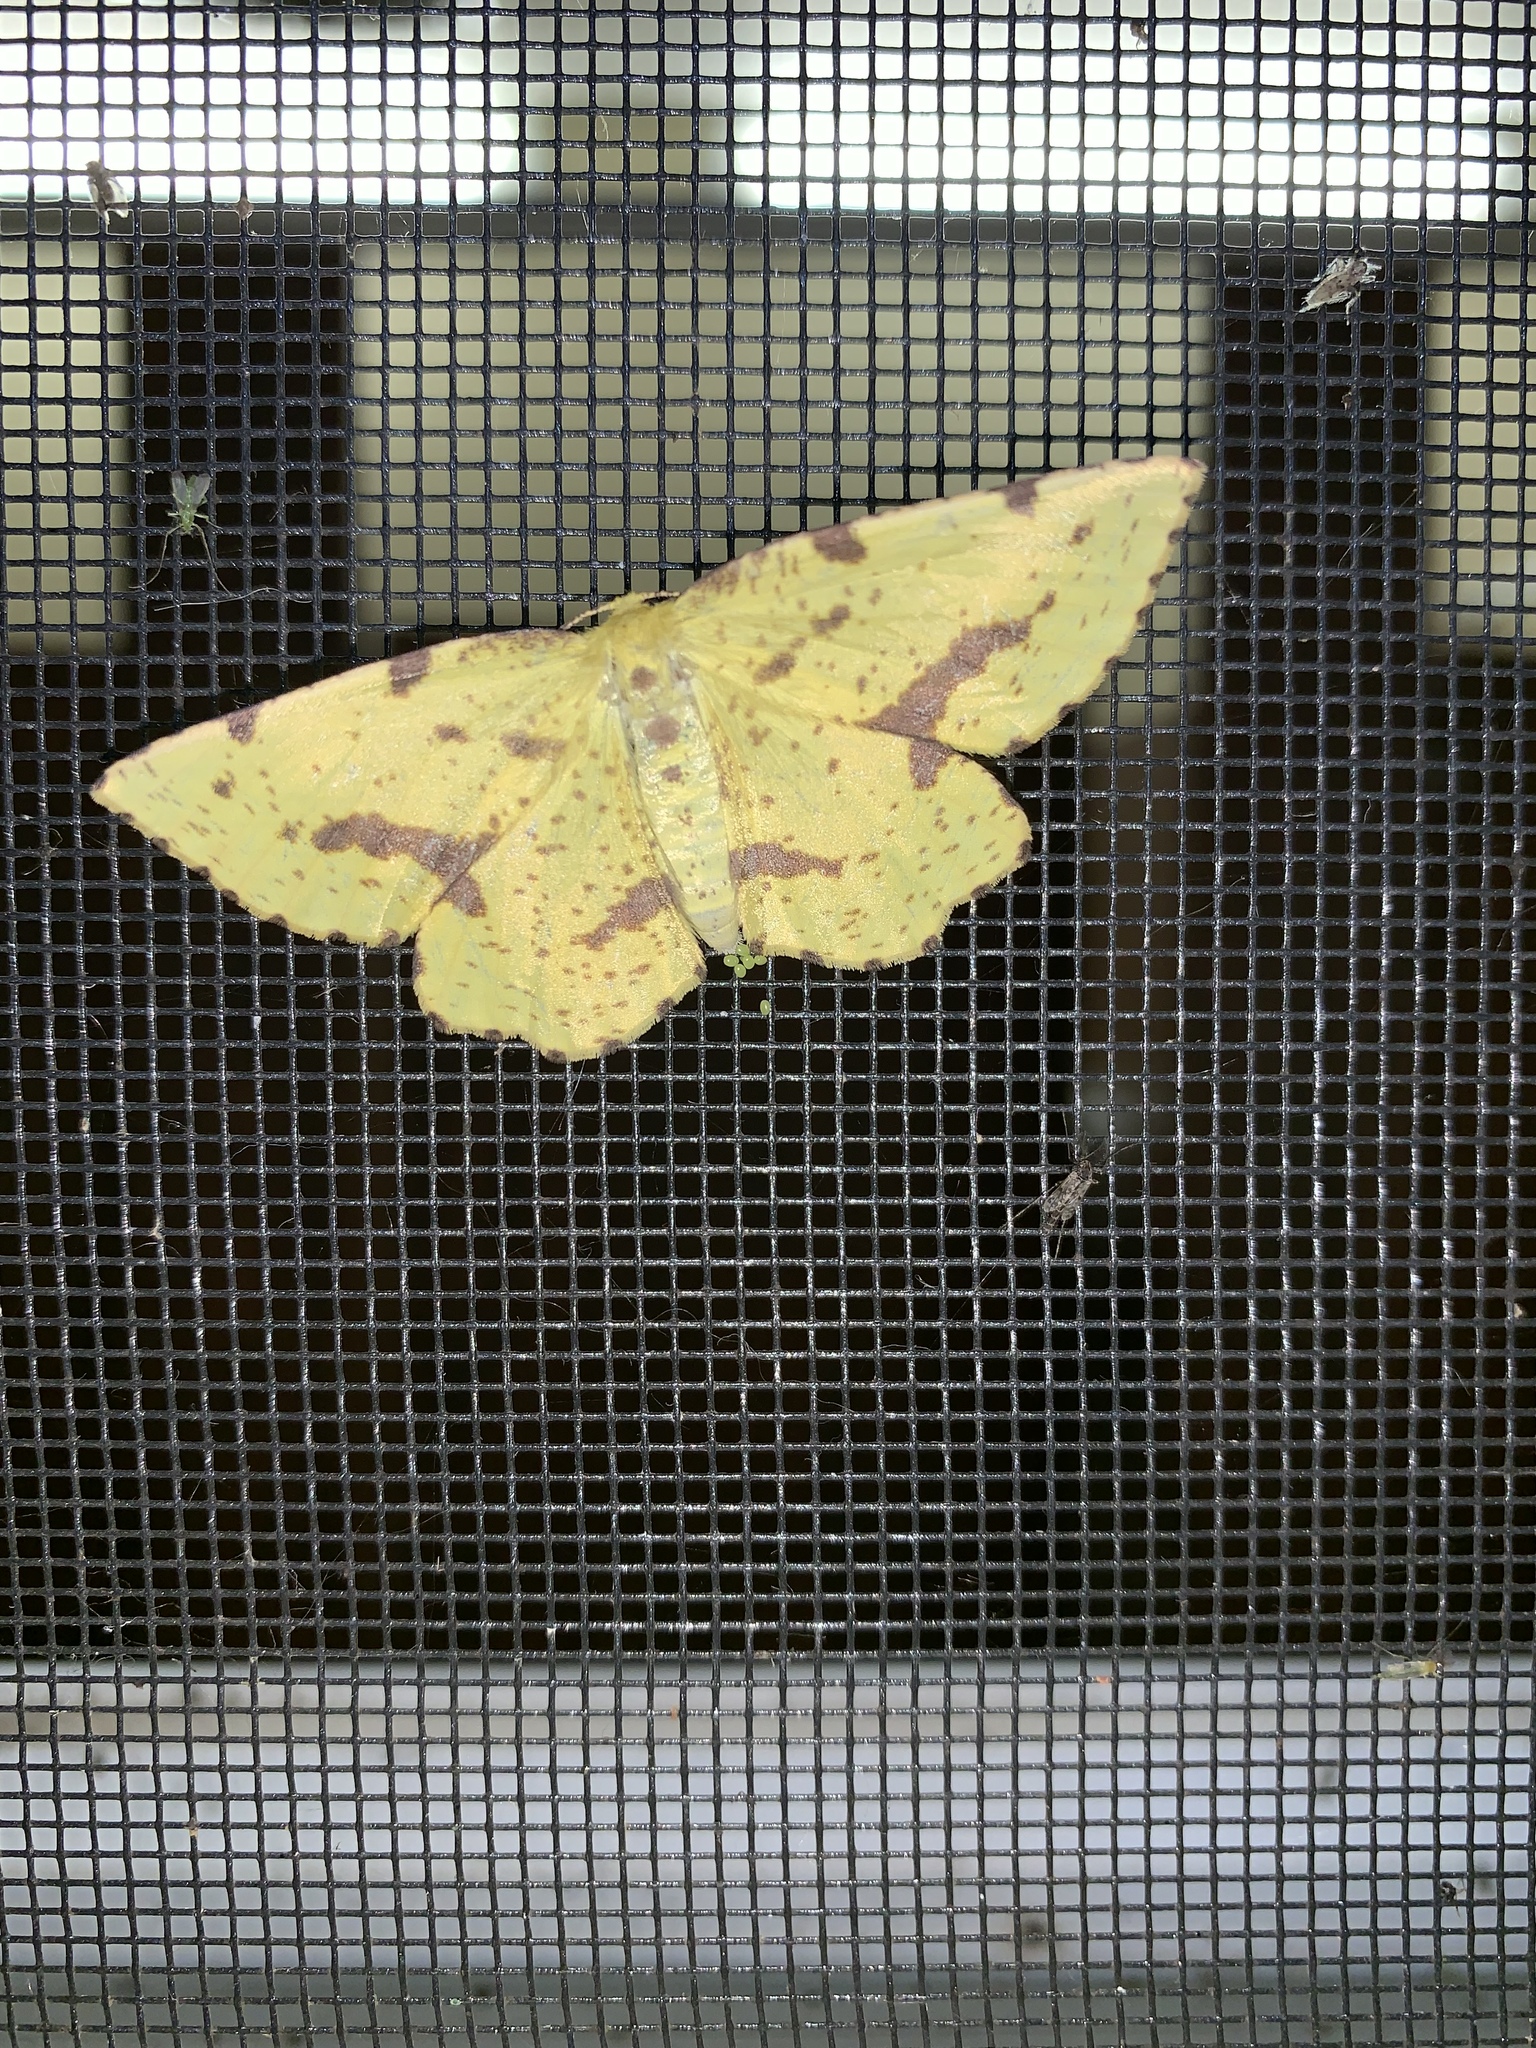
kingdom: Animalia
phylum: Arthropoda
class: Insecta
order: Lepidoptera
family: Geometridae
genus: Xanthotype
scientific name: Xanthotype
